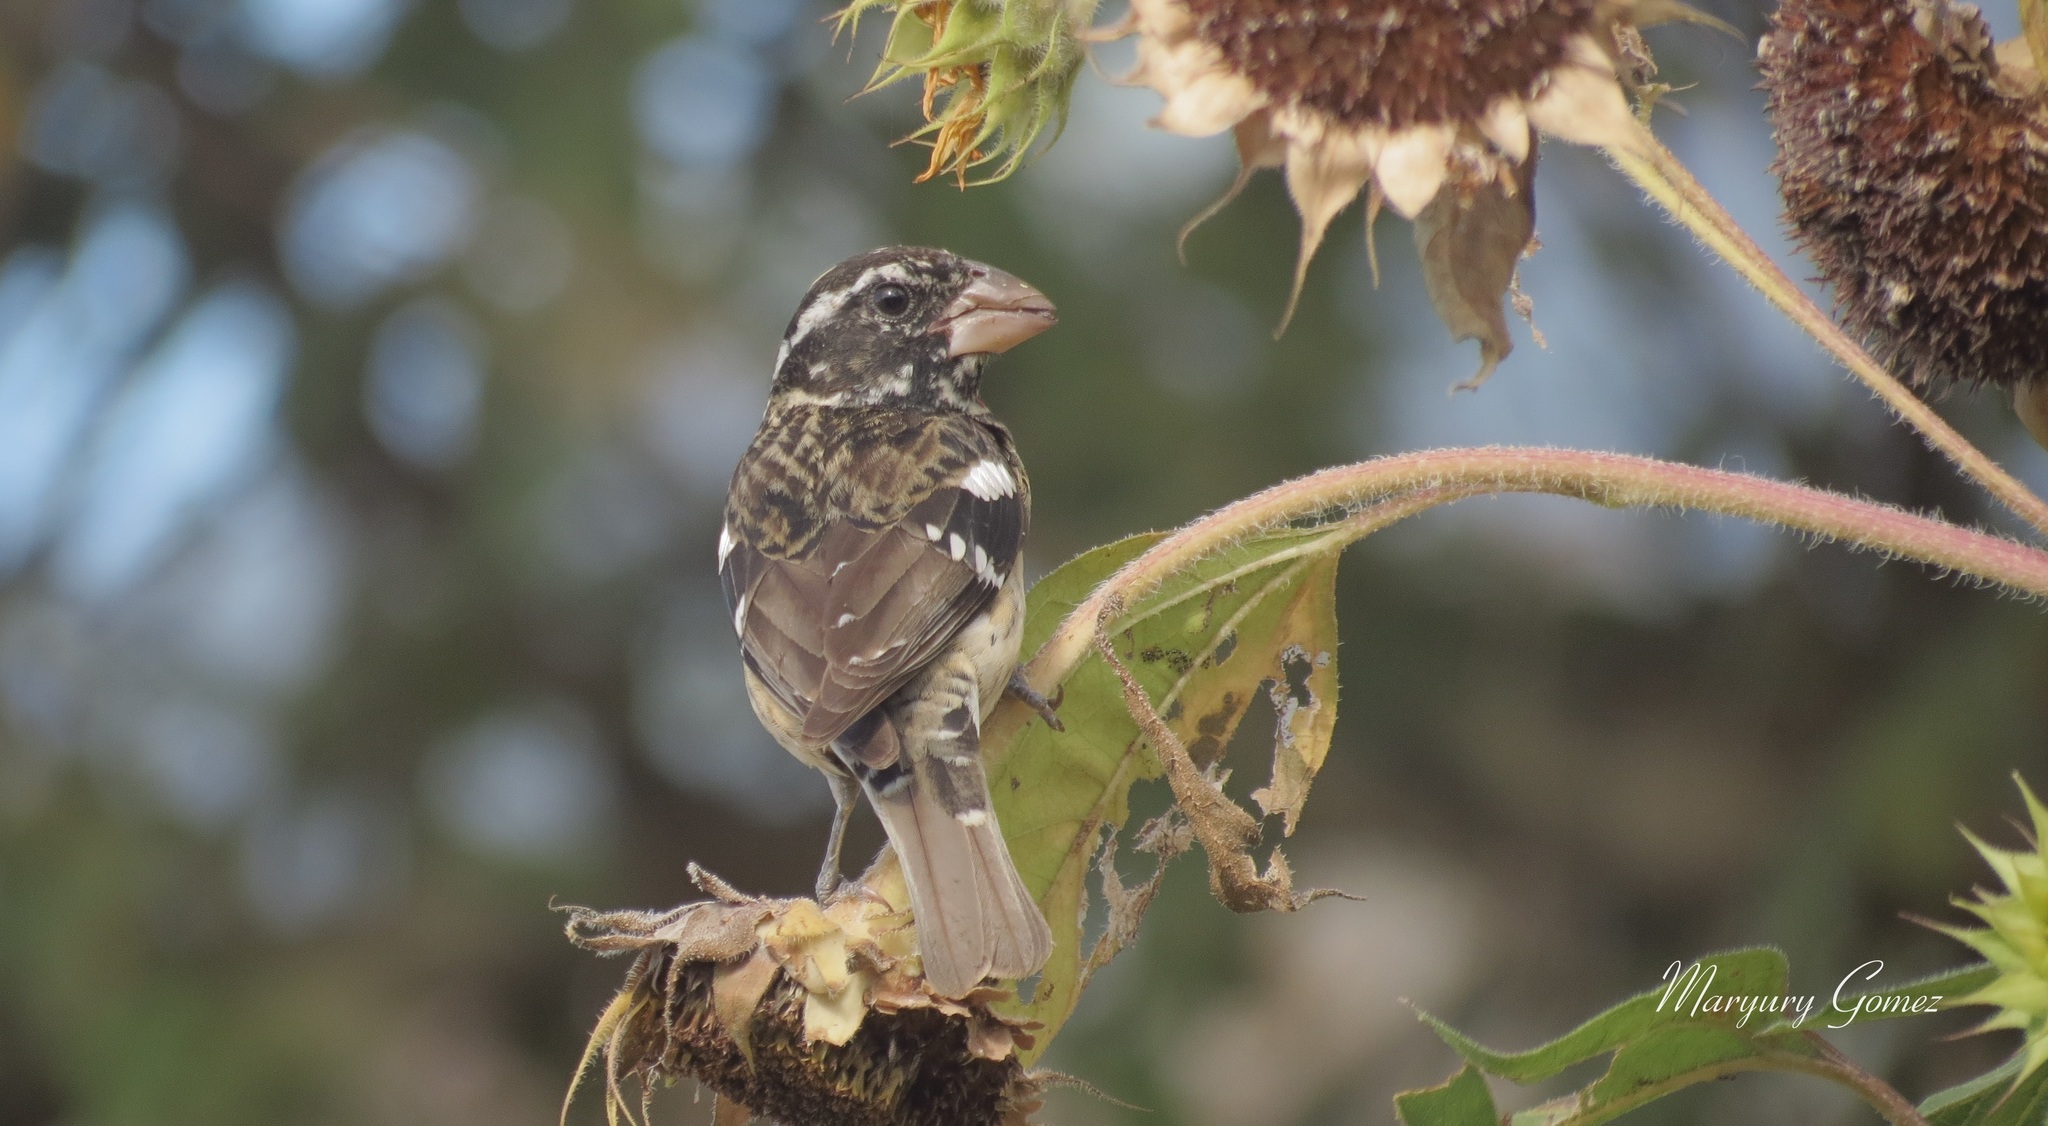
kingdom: Animalia
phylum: Chordata
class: Aves
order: Passeriformes
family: Cardinalidae
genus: Pheucticus
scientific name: Pheucticus ludovicianus
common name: Rose-breasted grosbeak
